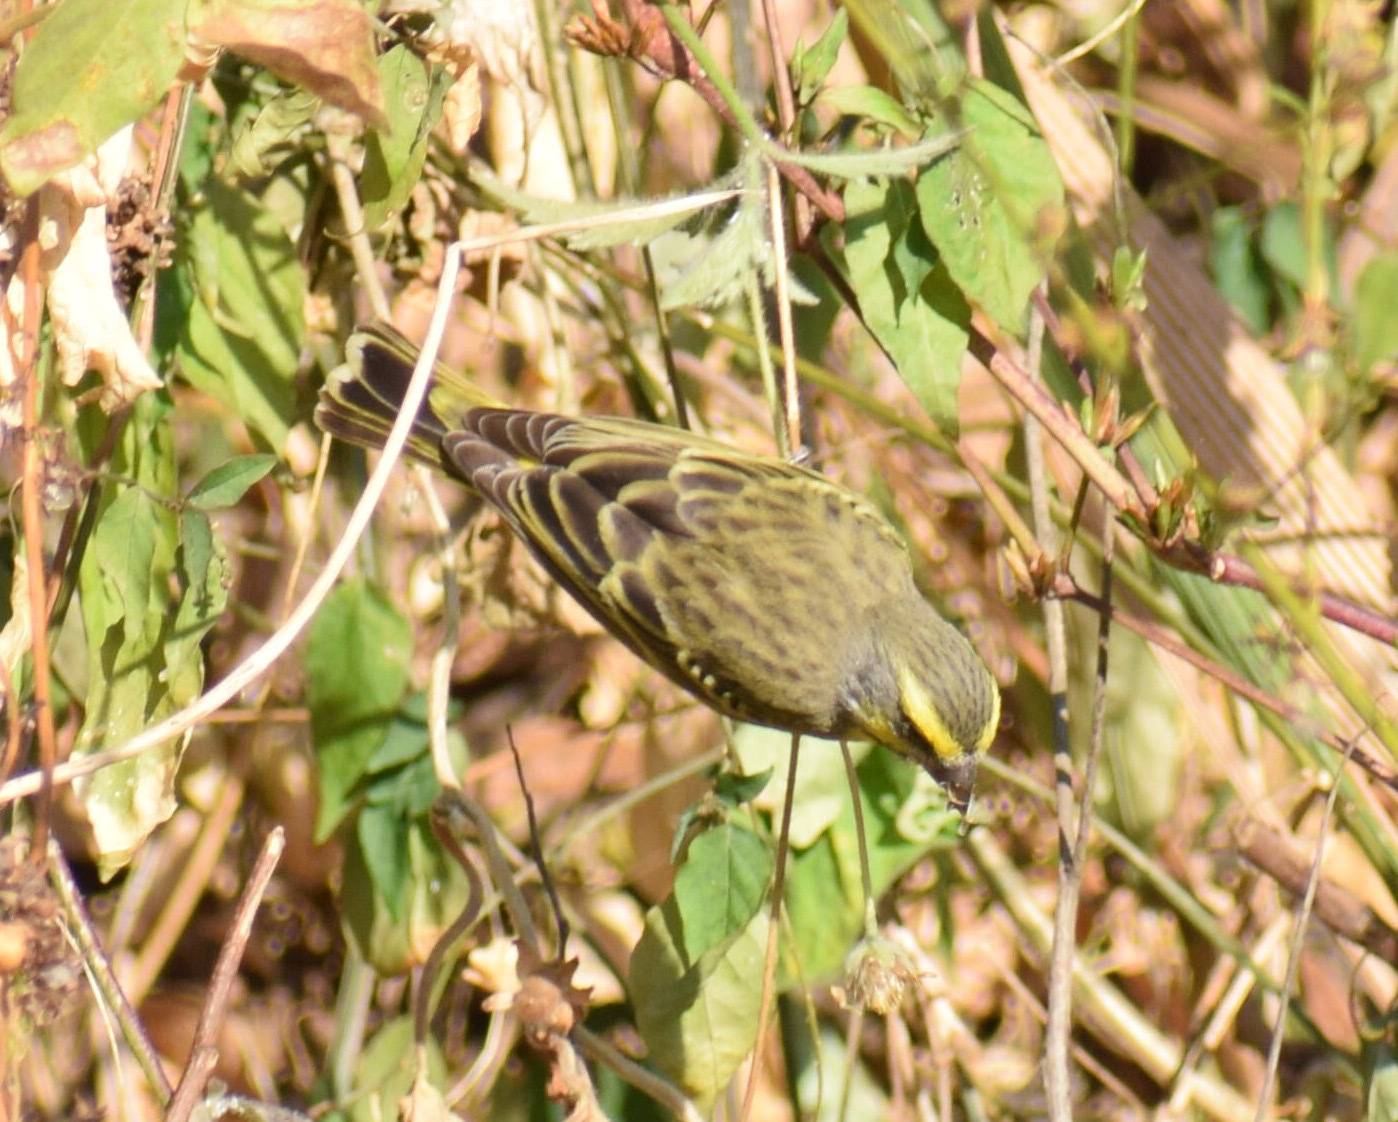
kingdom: Animalia
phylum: Chordata
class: Aves
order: Passeriformes
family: Fringillidae
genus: Crithagra
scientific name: Crithagra mozambica
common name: Yellow-fronted canary
